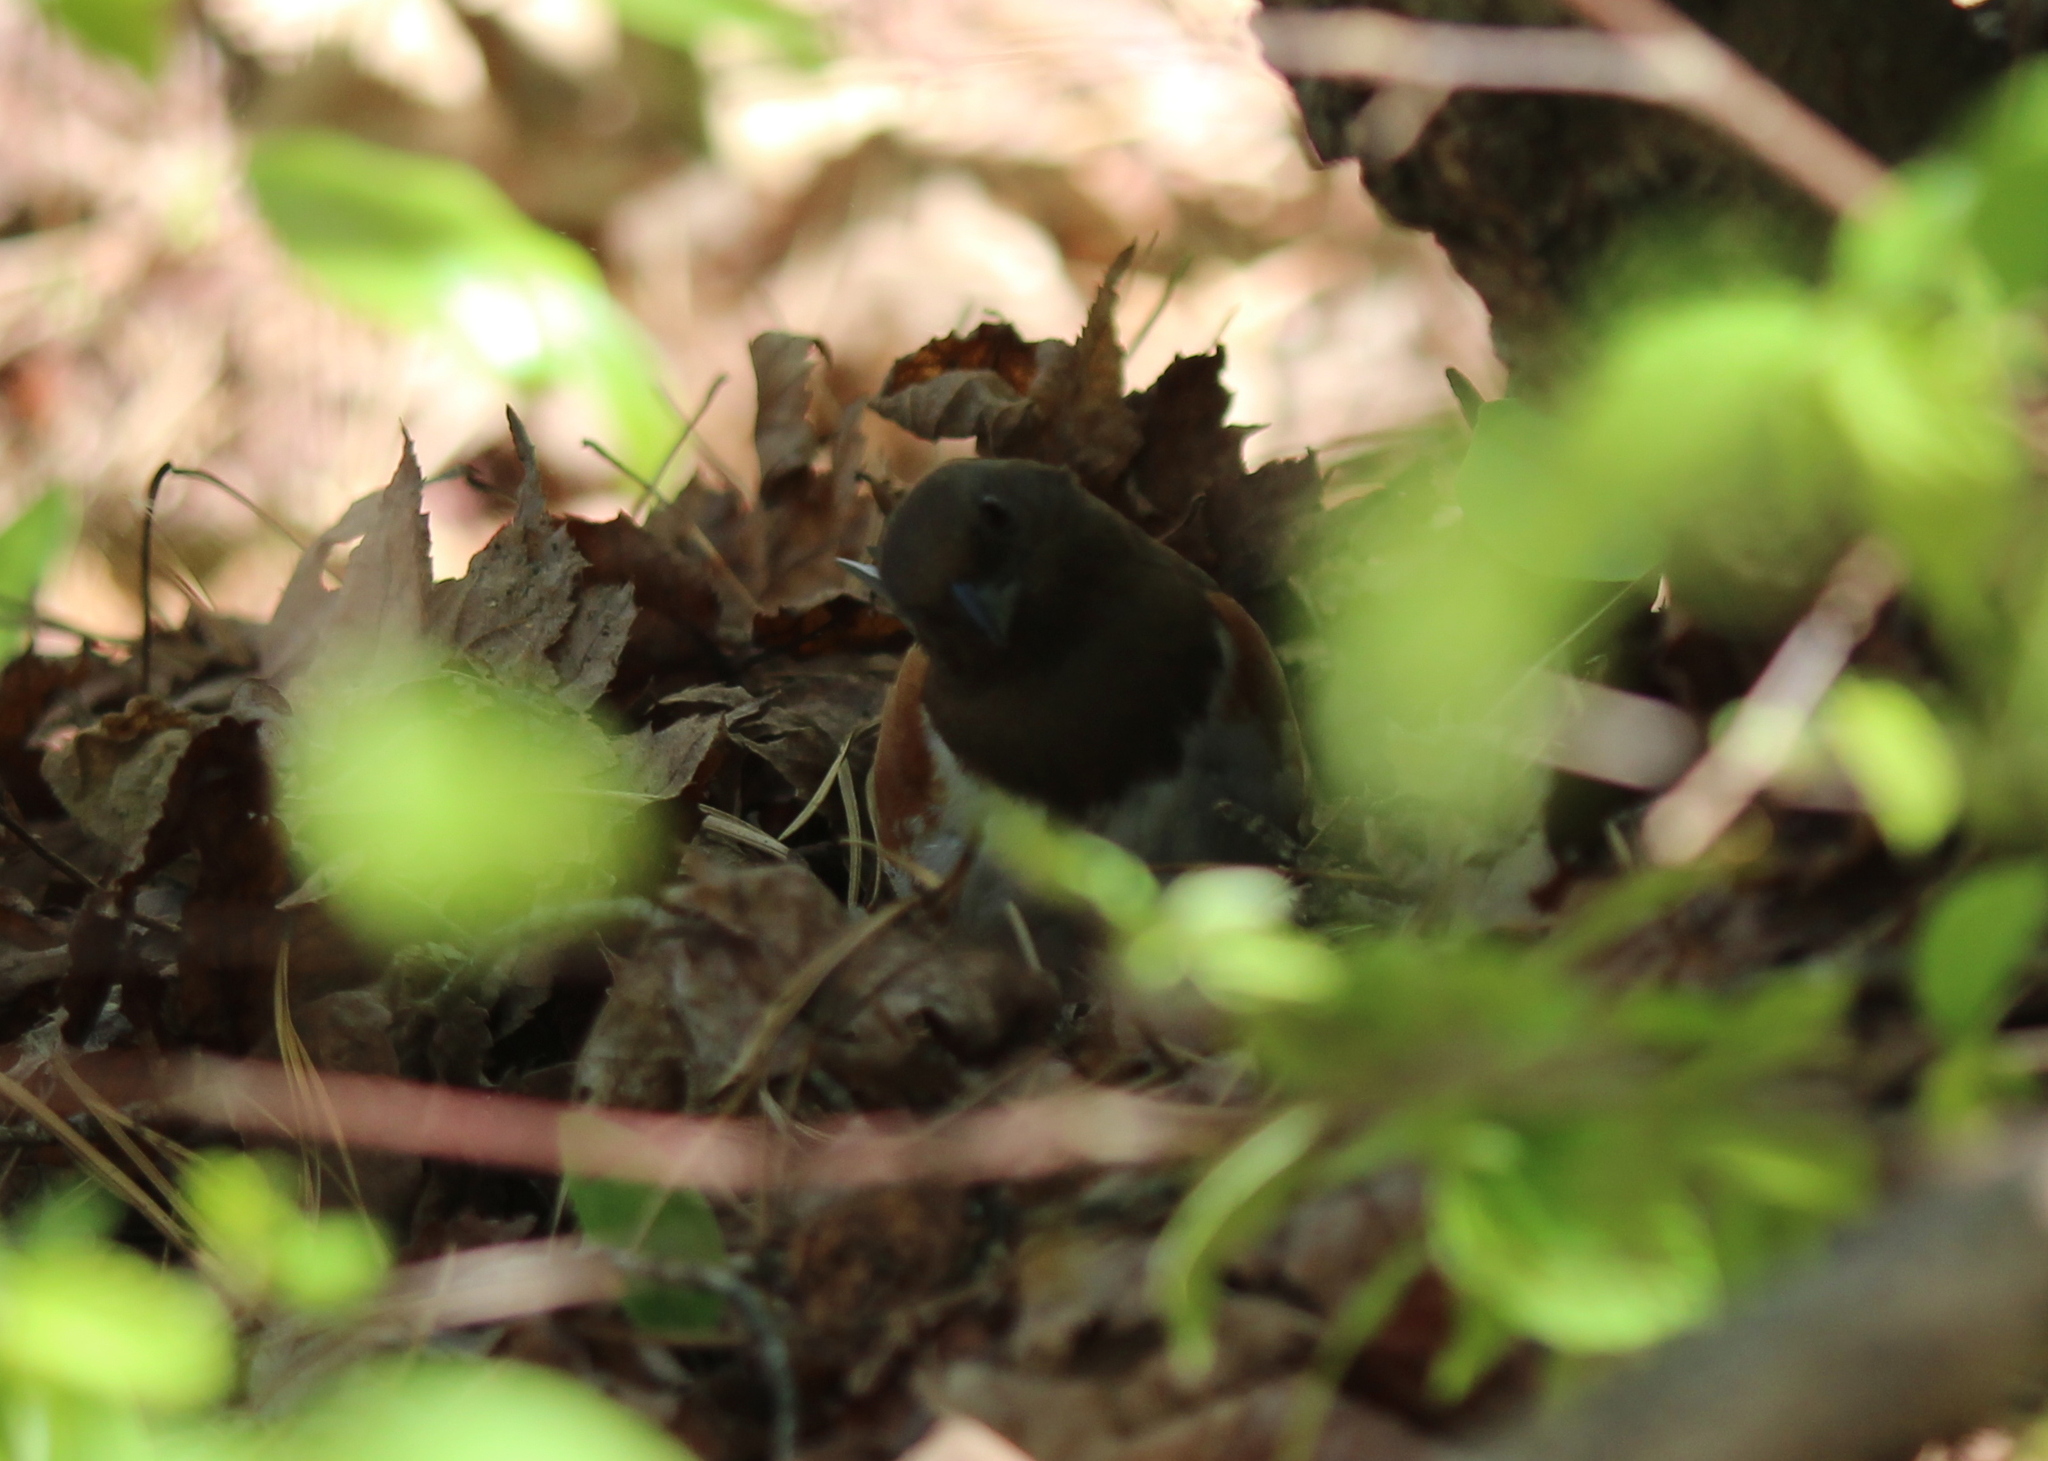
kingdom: Animalia
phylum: Chordata
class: Aves
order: Passeriformes
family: Passerellidae
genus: Pipilo
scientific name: Pipilo erythrophthalmus
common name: Eastern towhee
